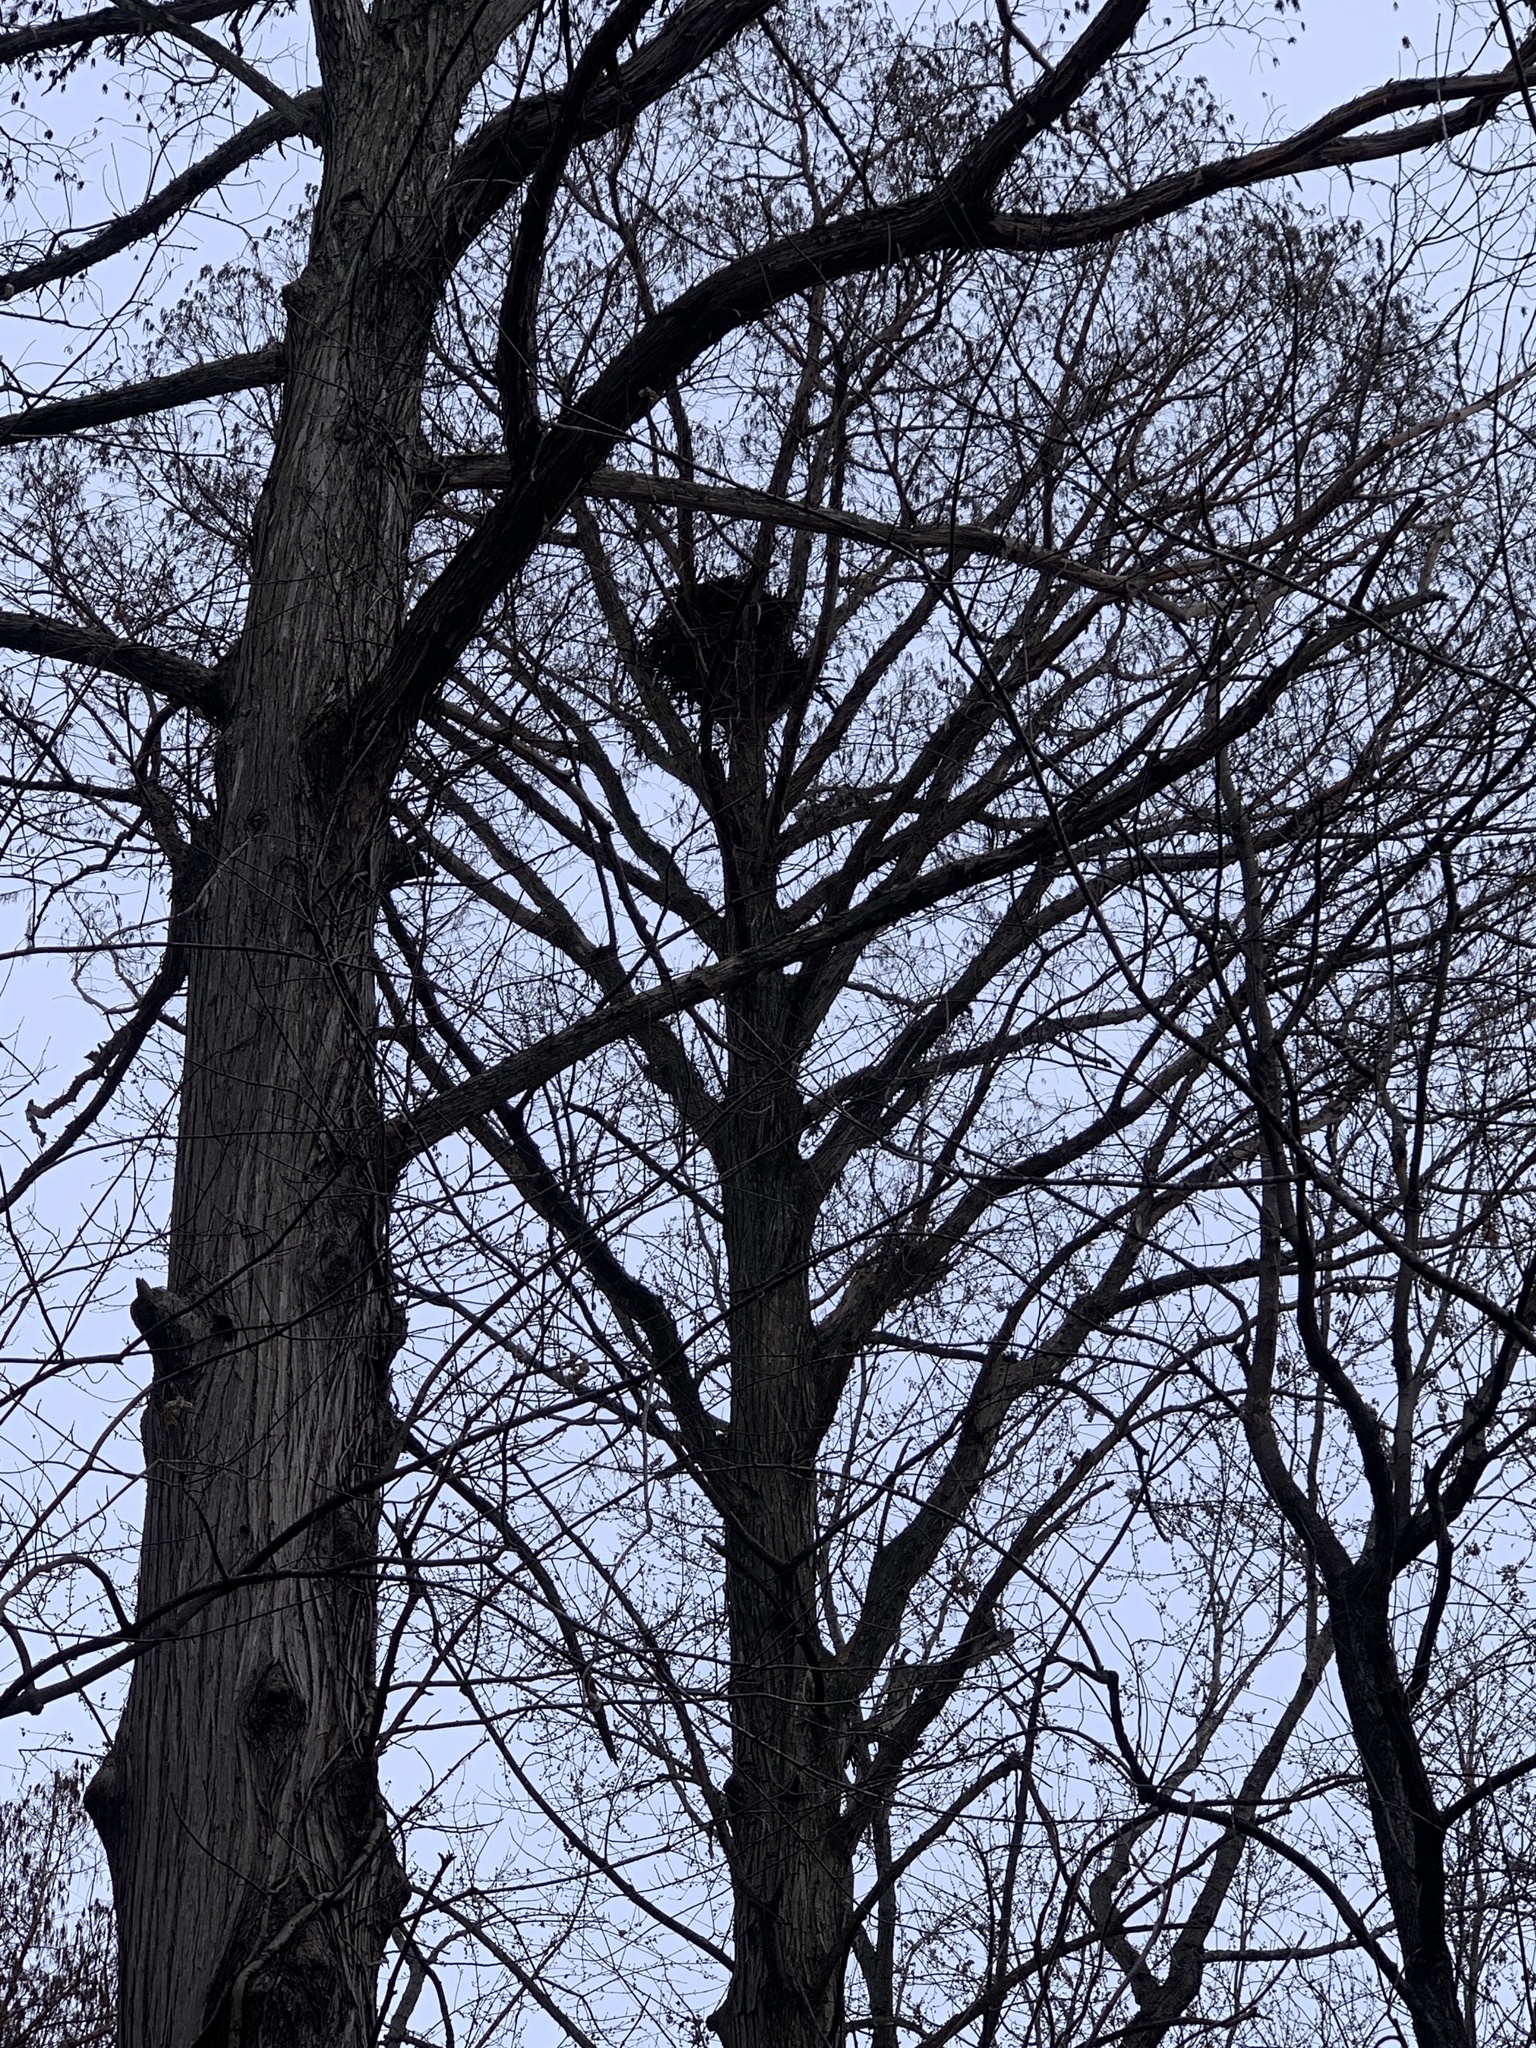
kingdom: Animalia
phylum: Chordata
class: Aves
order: Accipitriformes
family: Accipitridae
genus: Haliaeetus
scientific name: Haliaeetus leucocephalus
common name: Bald eagle
